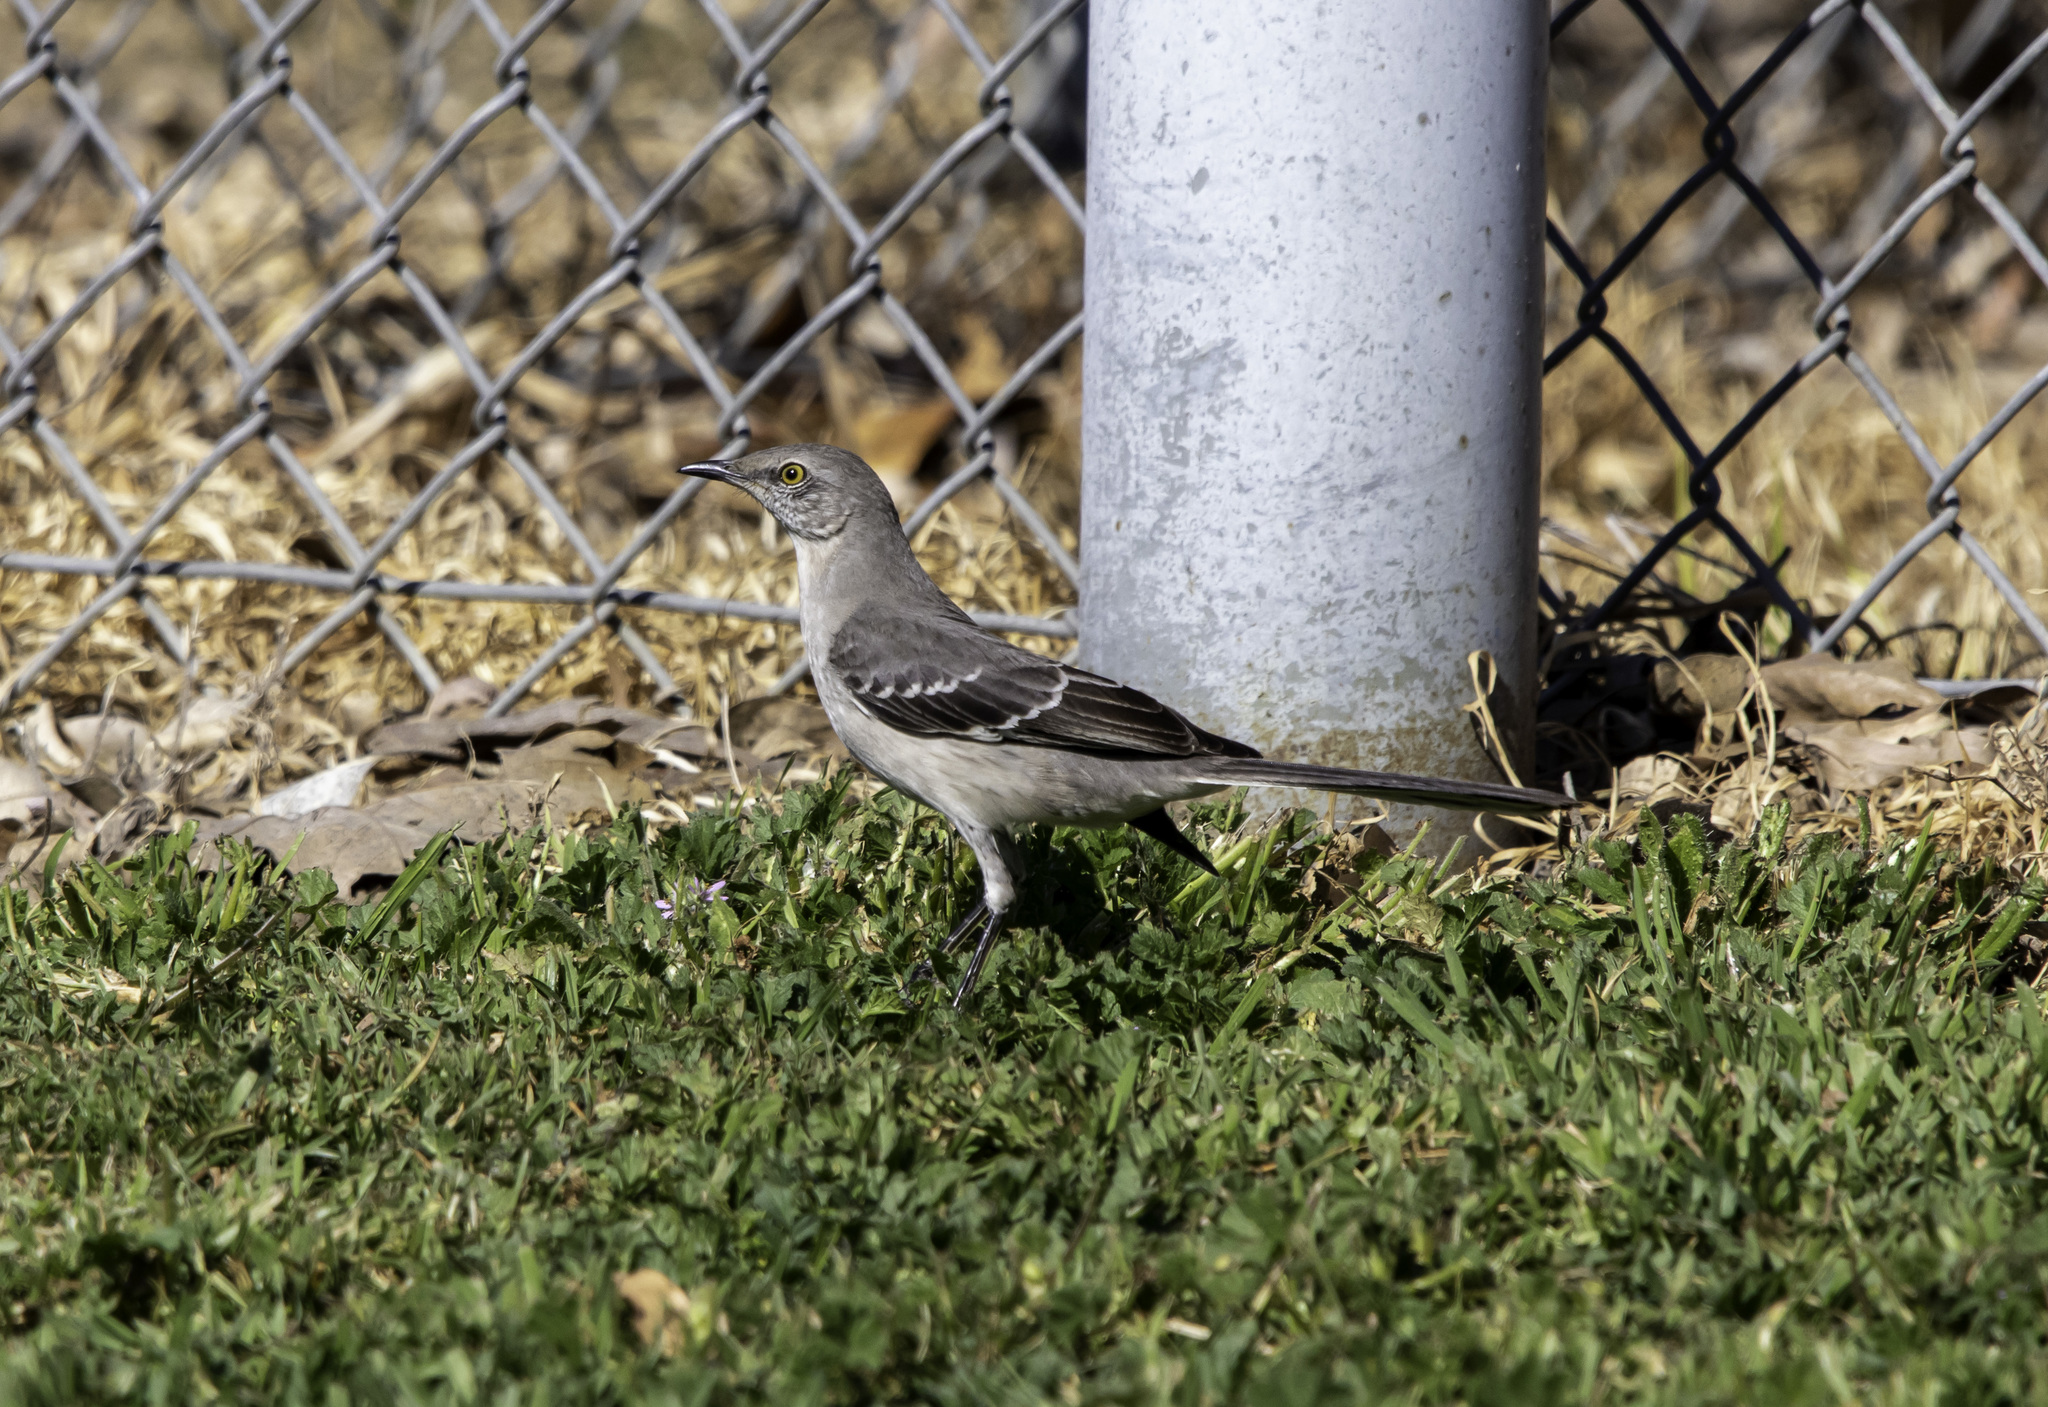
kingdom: Animalia
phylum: Chordata
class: Aves
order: Passeriformes
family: Mimidae
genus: Mimus
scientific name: Mimus polyglottos
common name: Northern mockingbird
